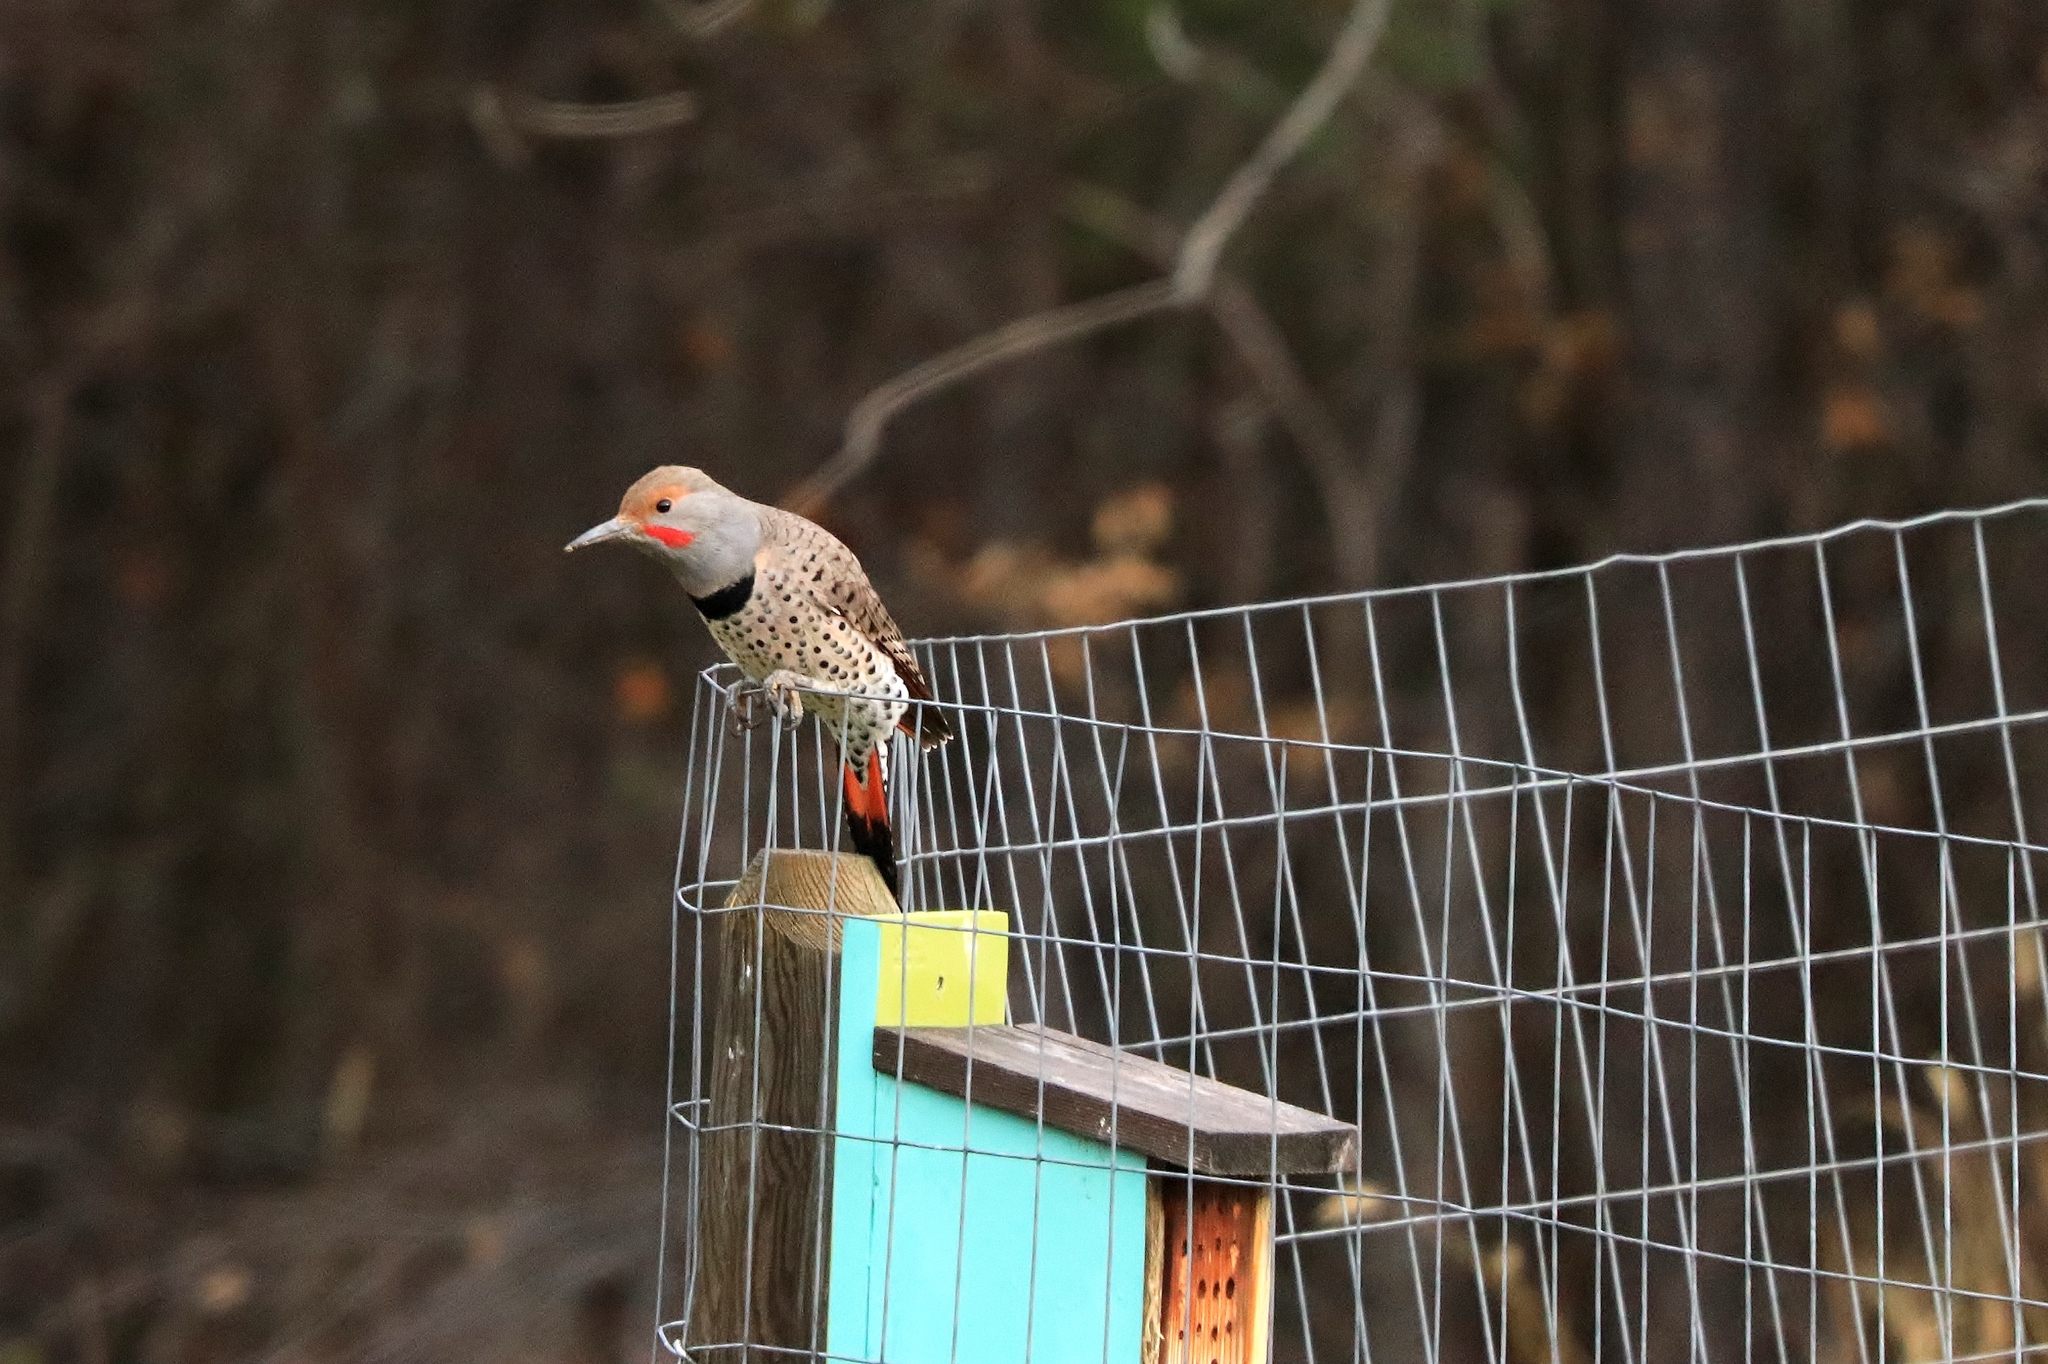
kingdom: Animalia
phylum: Chordata
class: Aves
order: Piciformes
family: Picidae
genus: Colaptes
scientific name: Colaptes auratus
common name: Northern flicker
